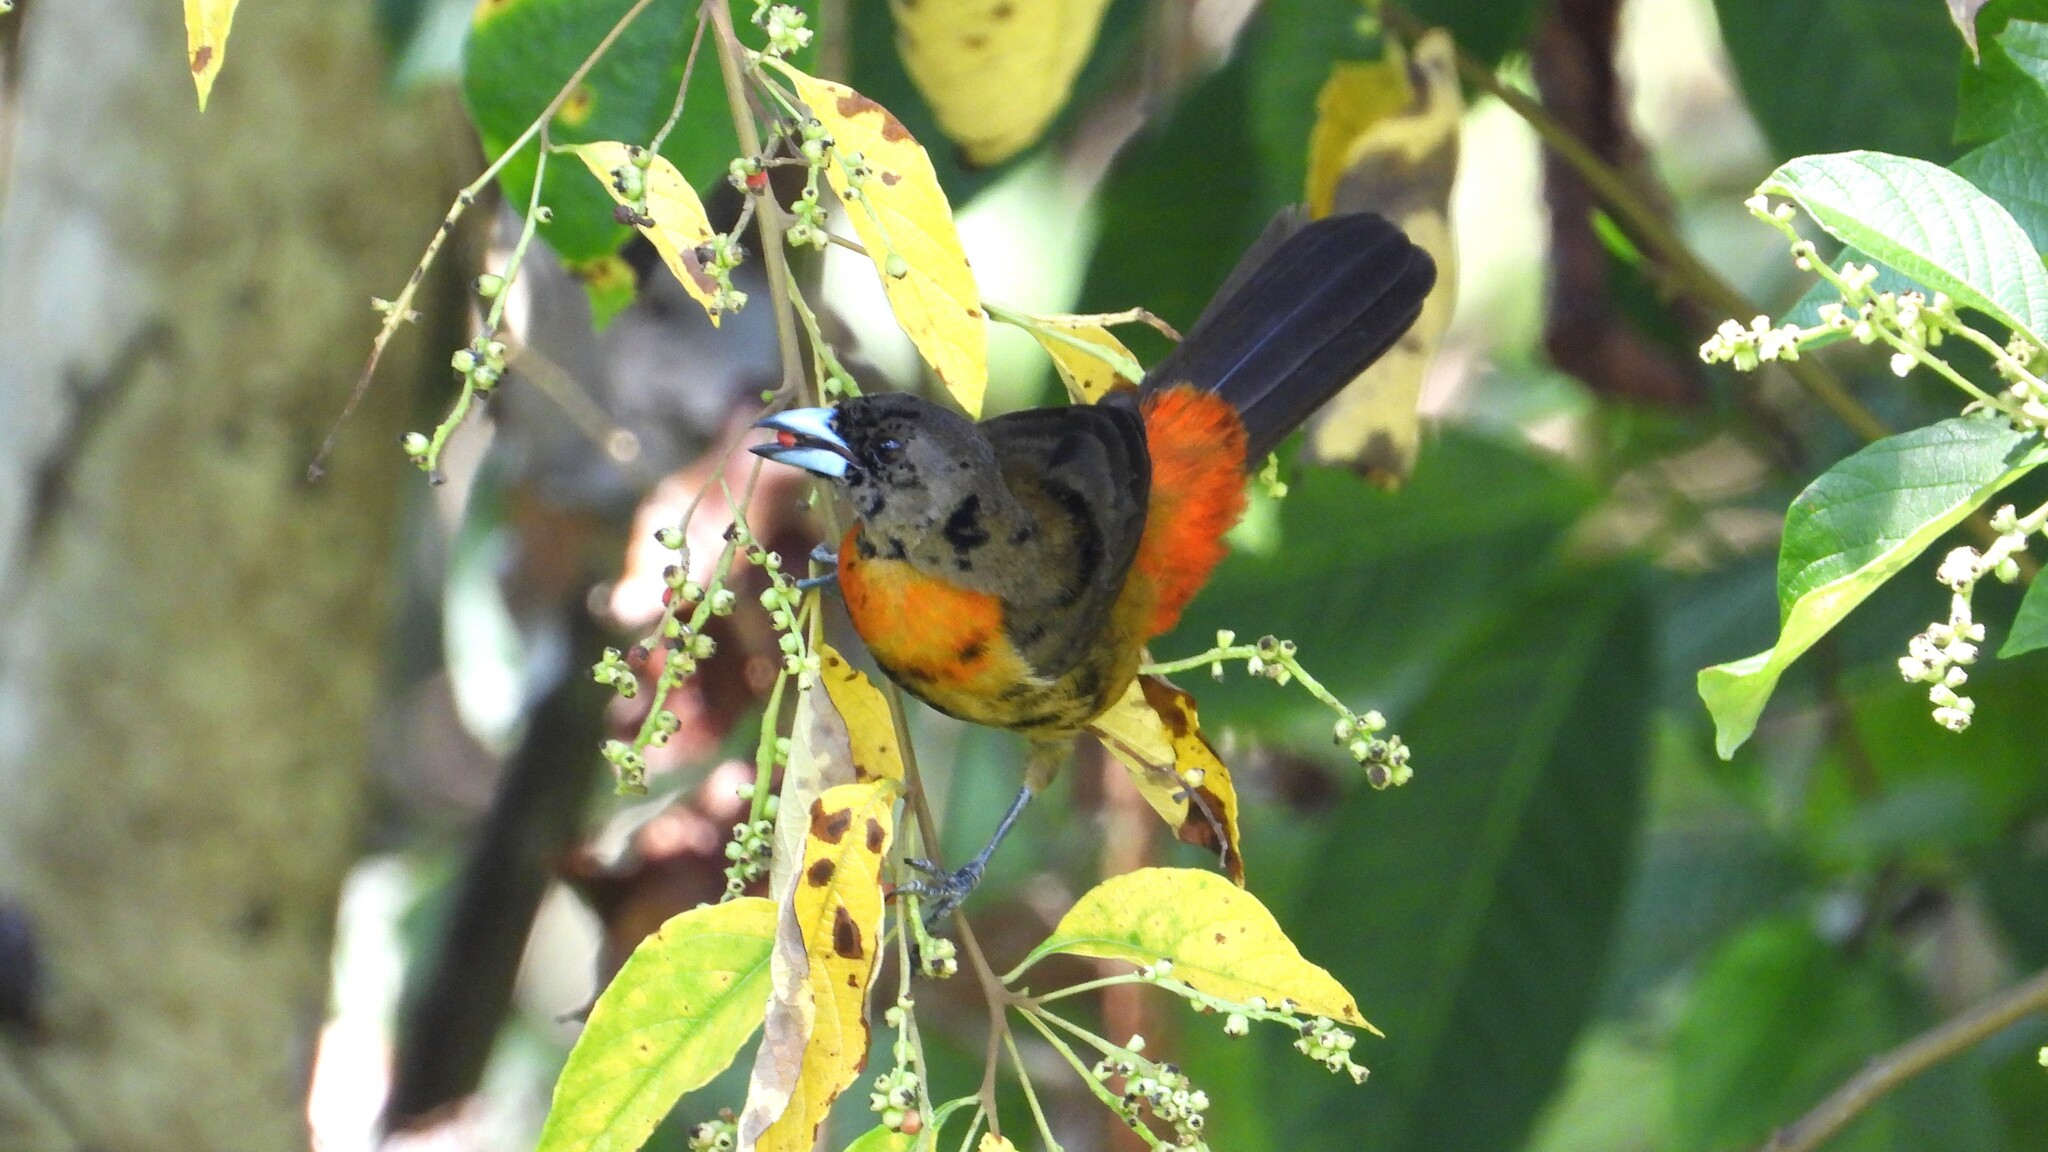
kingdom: Animalia
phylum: Chordata
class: Aves
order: Passeriformes
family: Thraupidae
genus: Ramphocelus
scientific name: Ramphocelus passerinii
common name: Passerini's tanager
